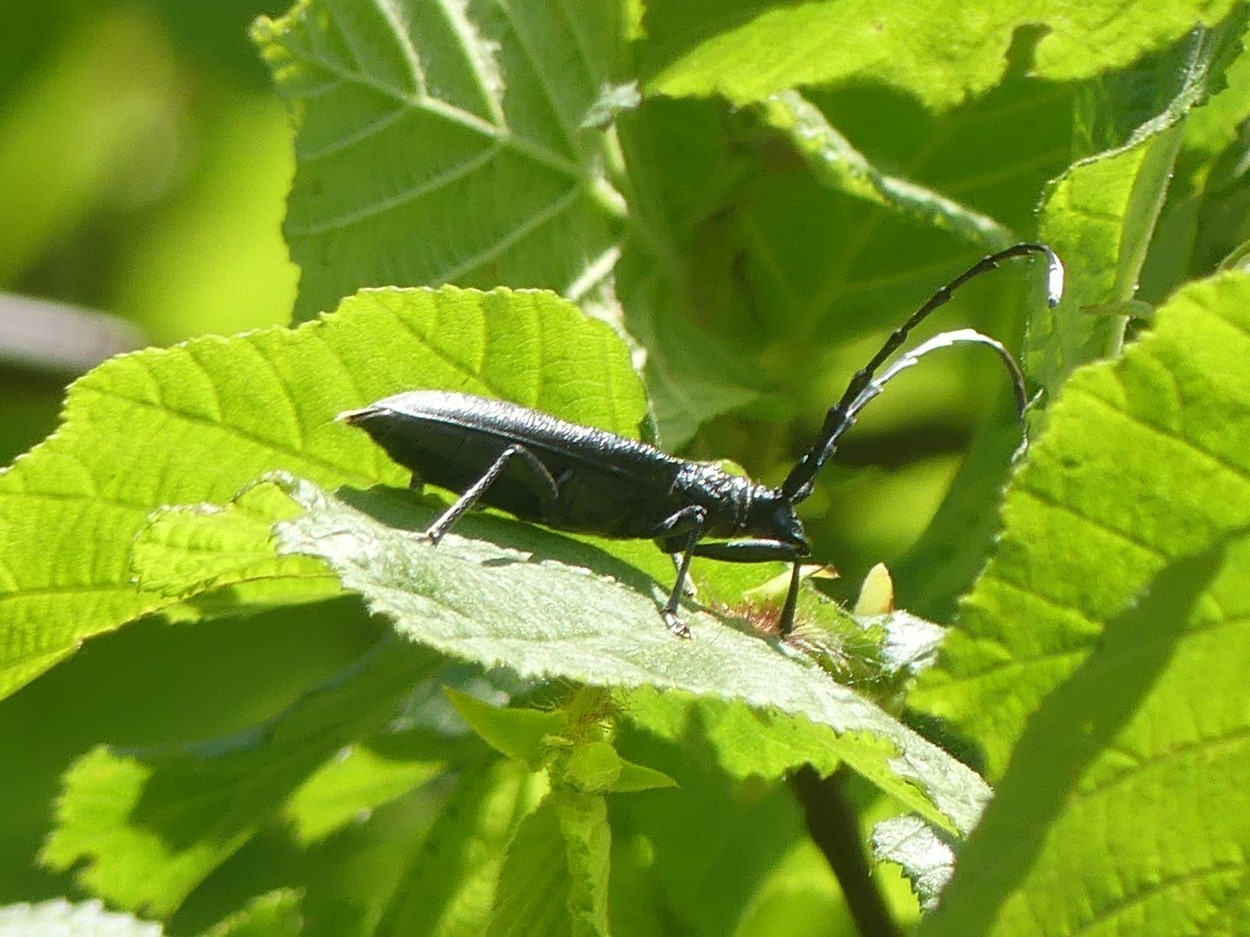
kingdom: Animalia
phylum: Arthropoda
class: Insecta
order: Coleoptera
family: Cerambycidae
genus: Cerambyx
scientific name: Cerambyx scopolii
